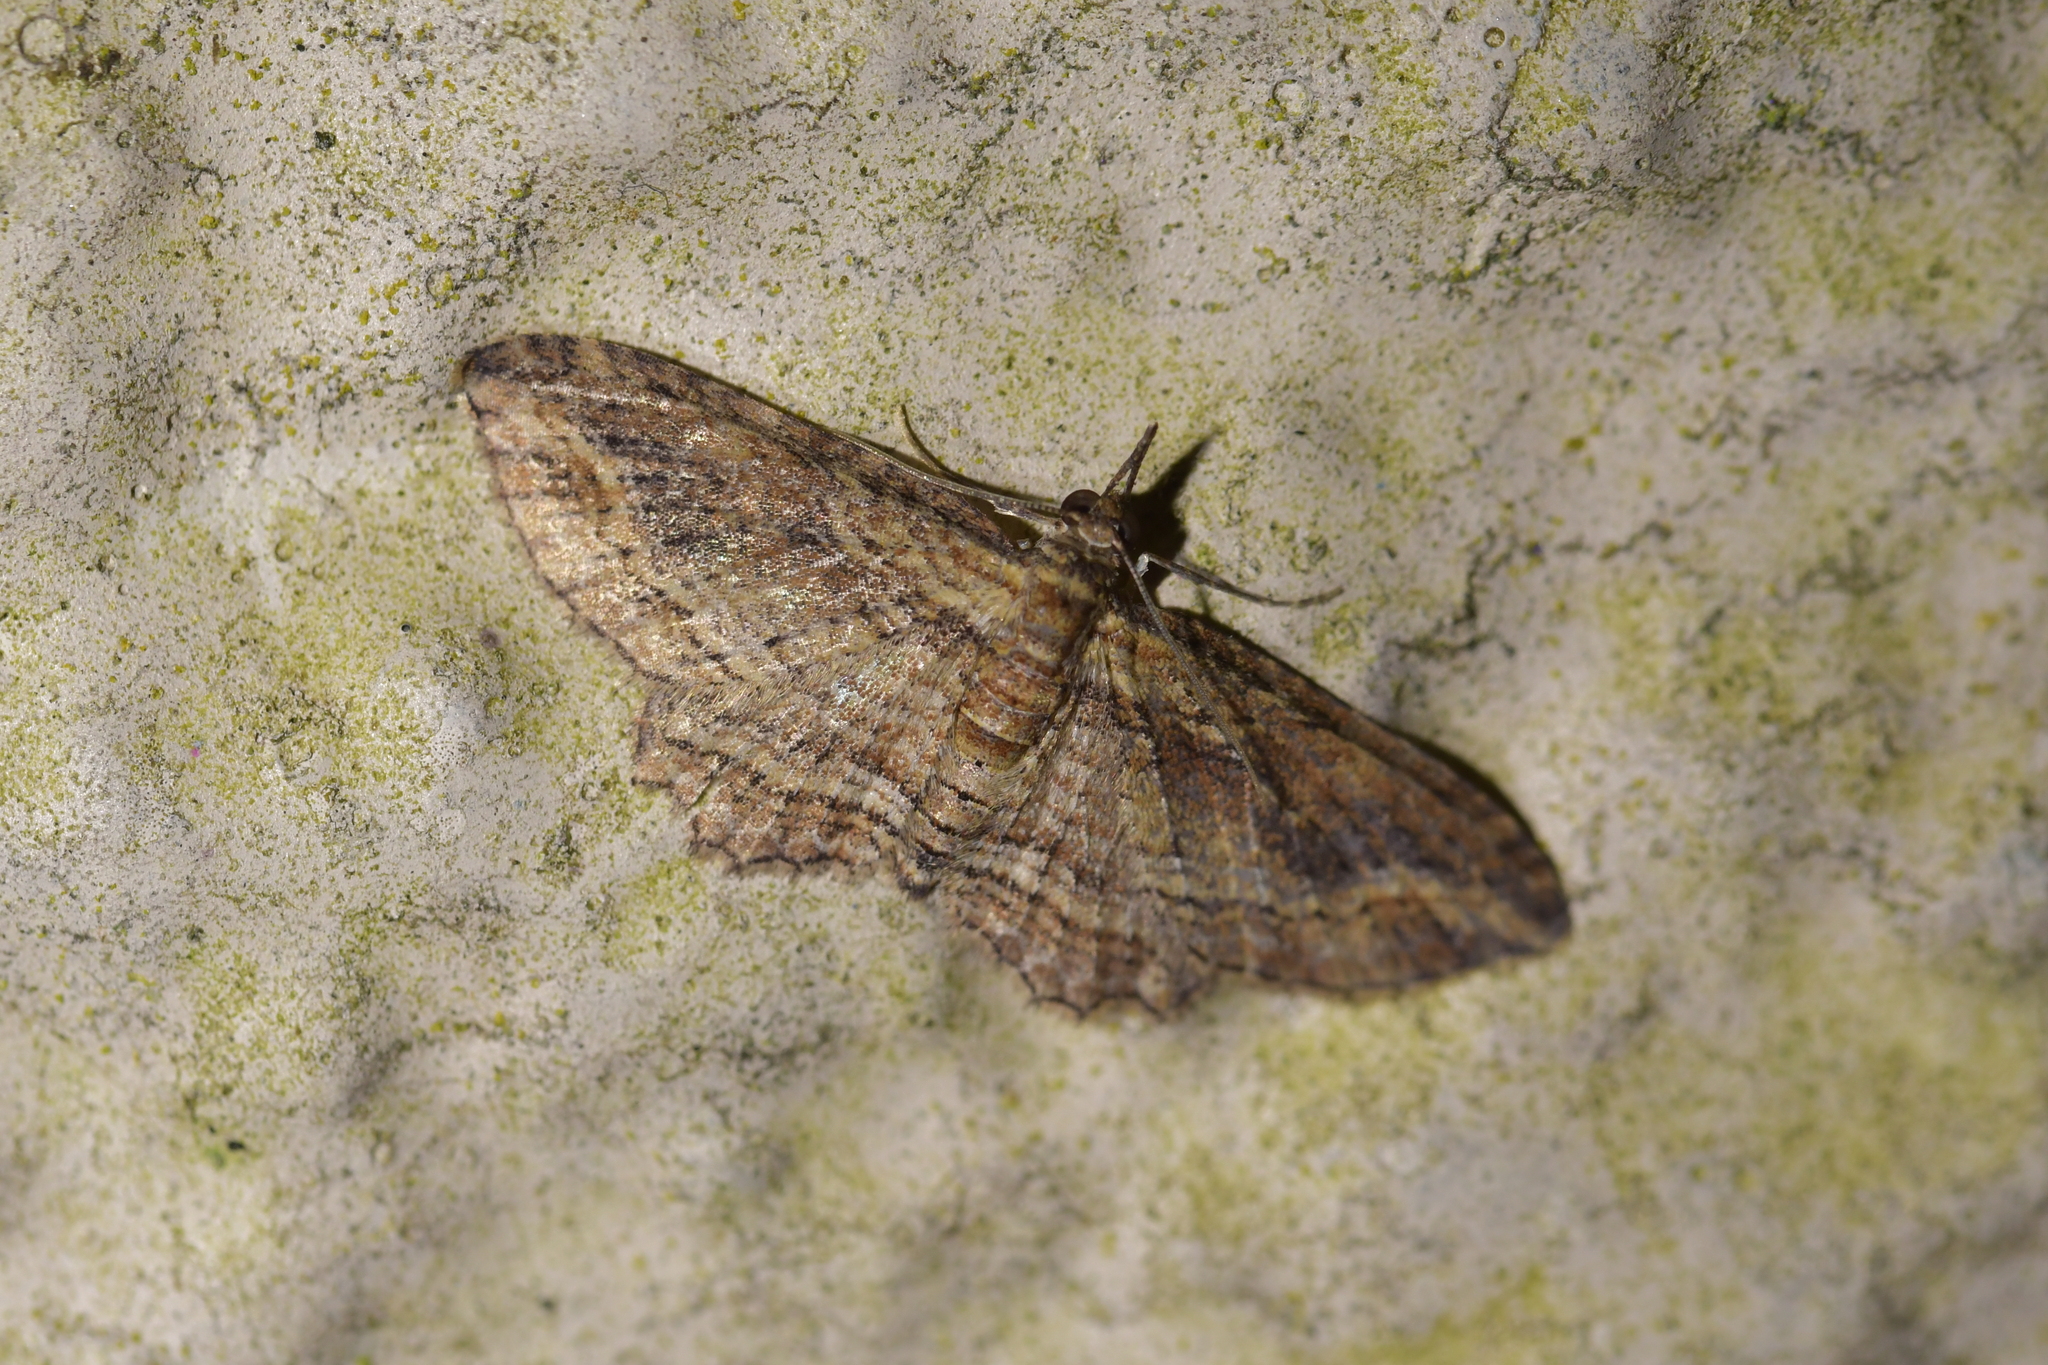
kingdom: Animalia
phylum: Arthropoda
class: Insecta
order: Lepidoptera
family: Geometridae
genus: Chloroclystis
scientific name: Chloroclystis filata
